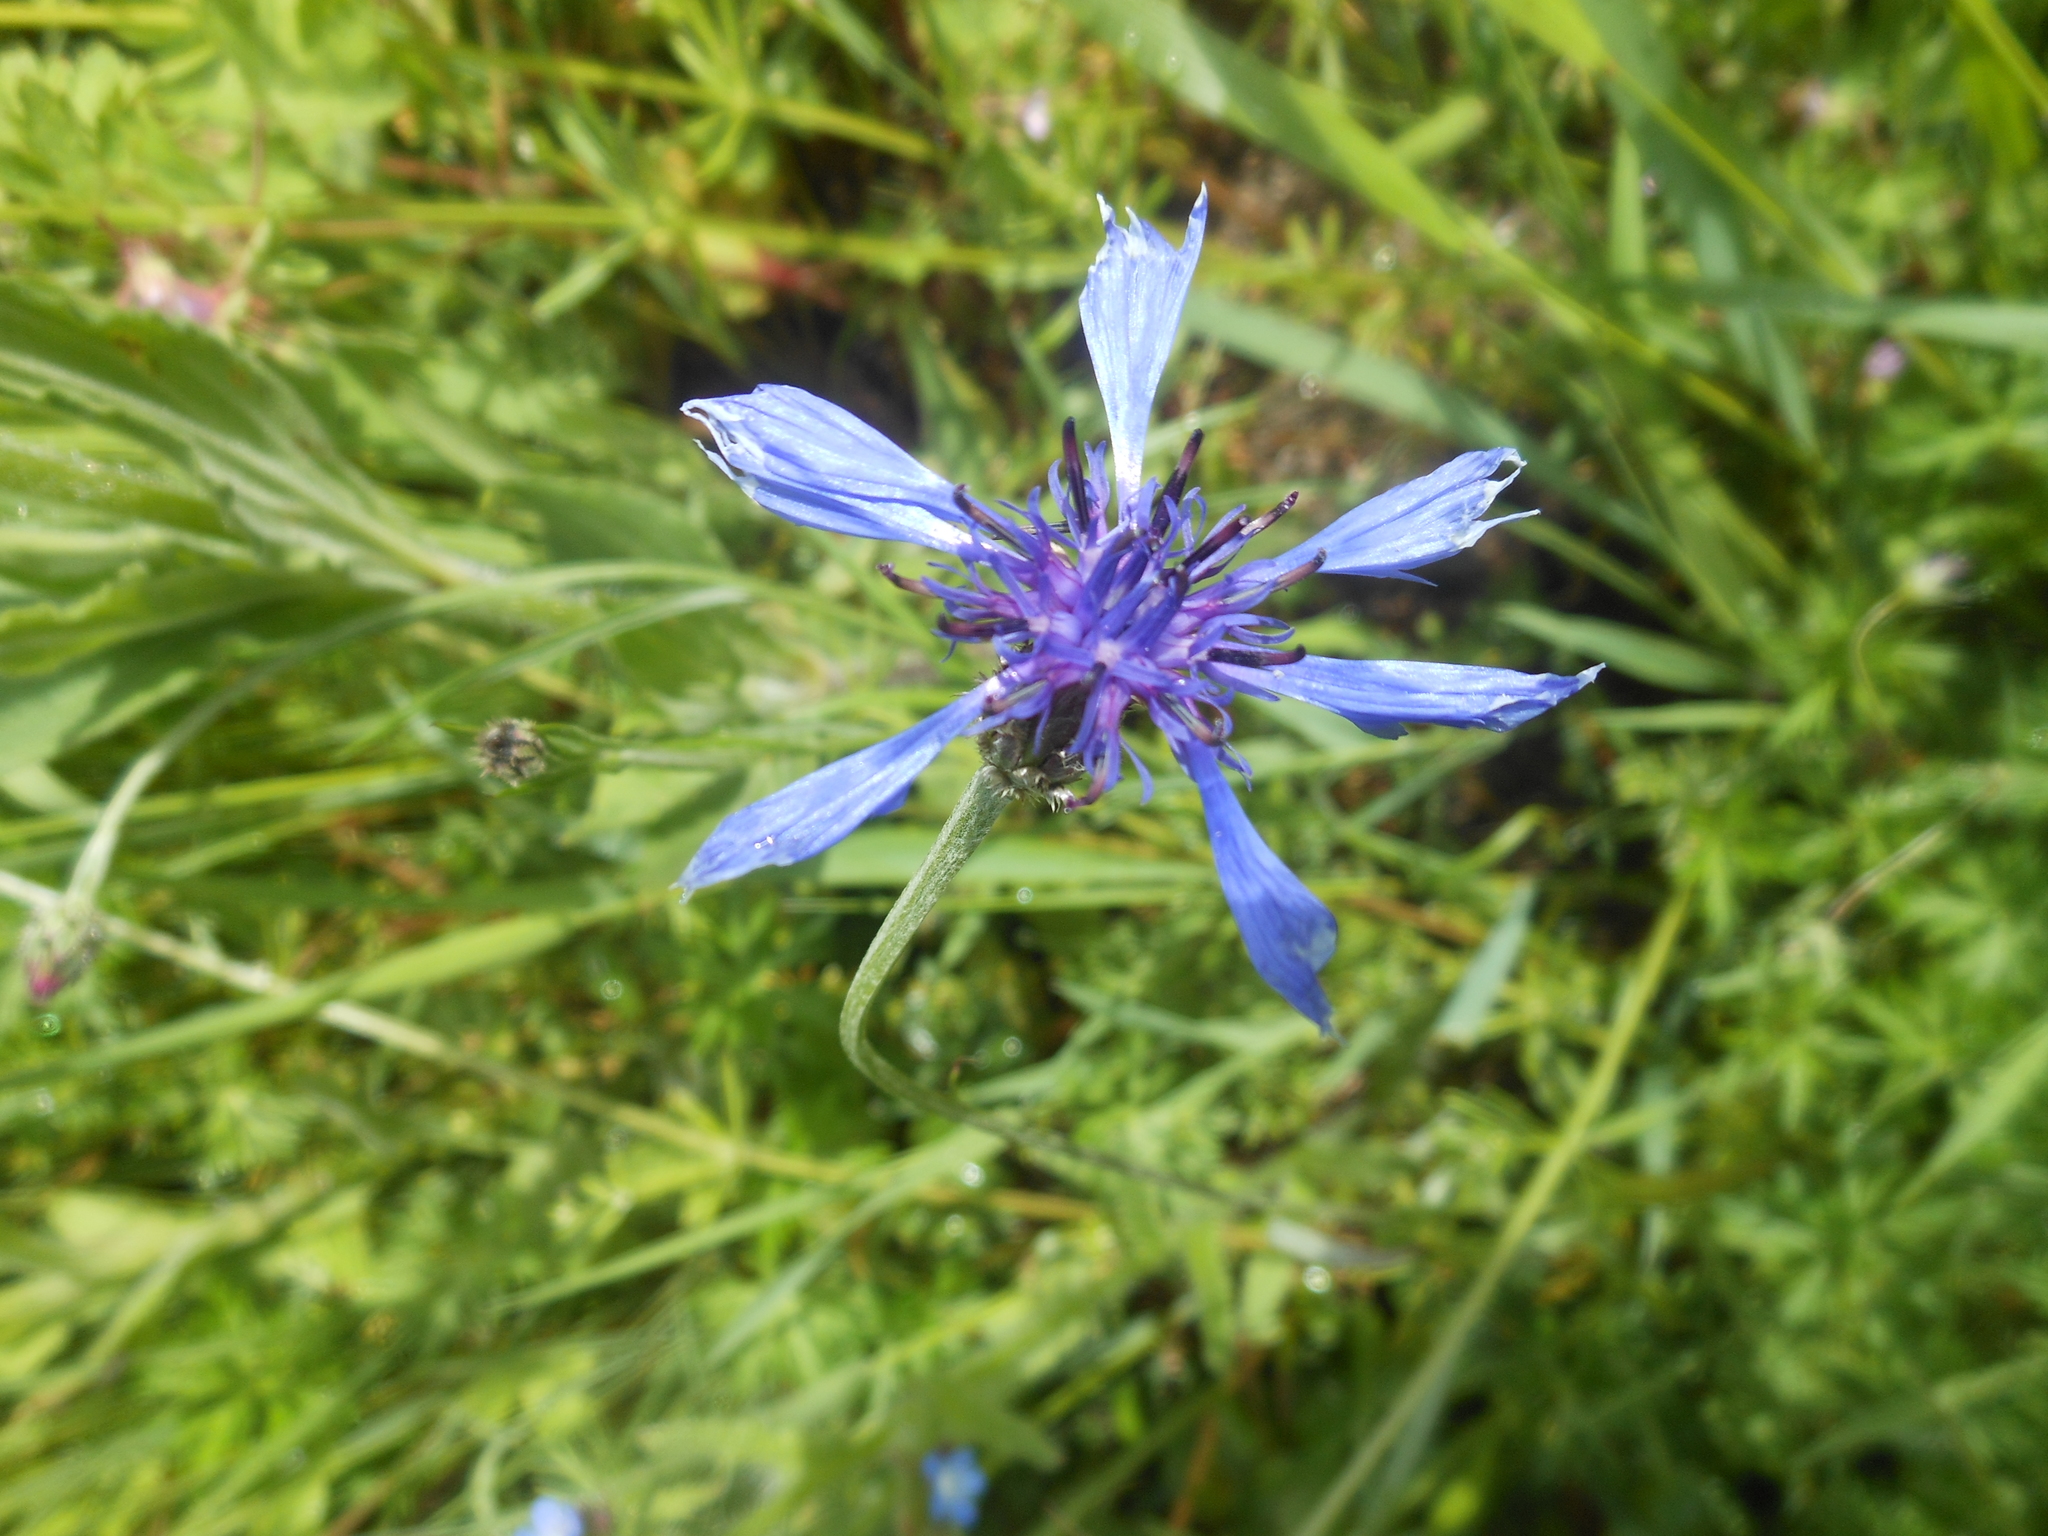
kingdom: Plantae
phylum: Tracheophyta
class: Magnoliopsida
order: Asterales
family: Asteraceae
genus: Centaurea
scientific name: Centaurea cyanus
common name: Cornflower
